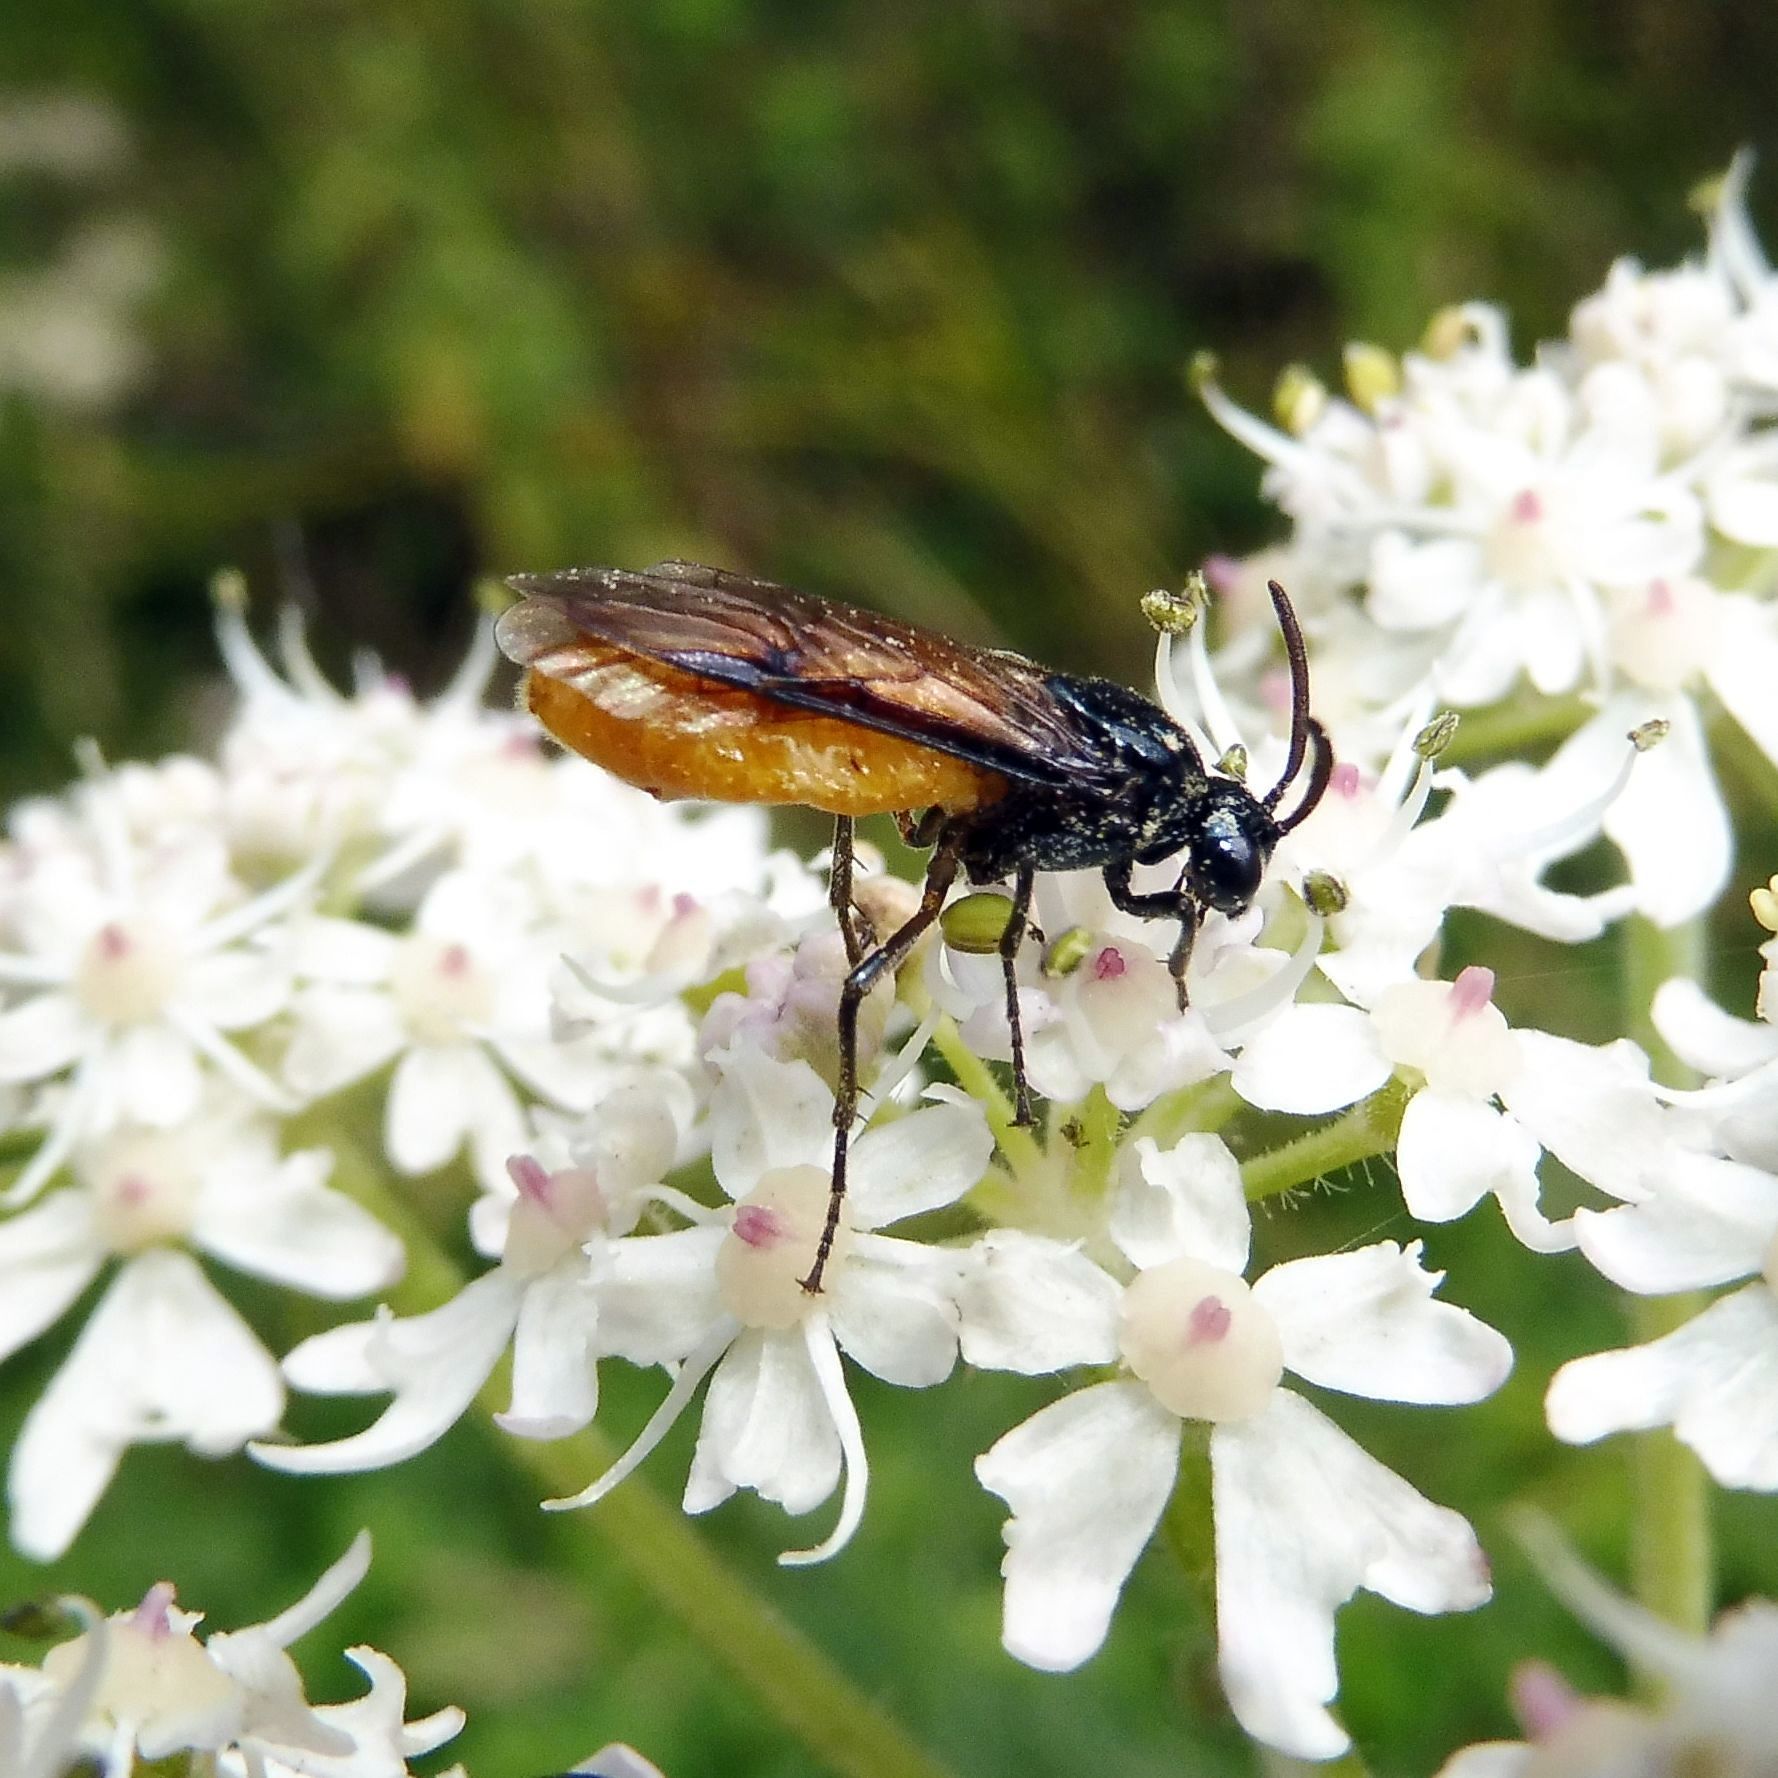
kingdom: Animalia
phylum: Arthropoda
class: Insecta
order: Hymenoptera
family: Argidae
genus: Arge
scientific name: Arge pagana
